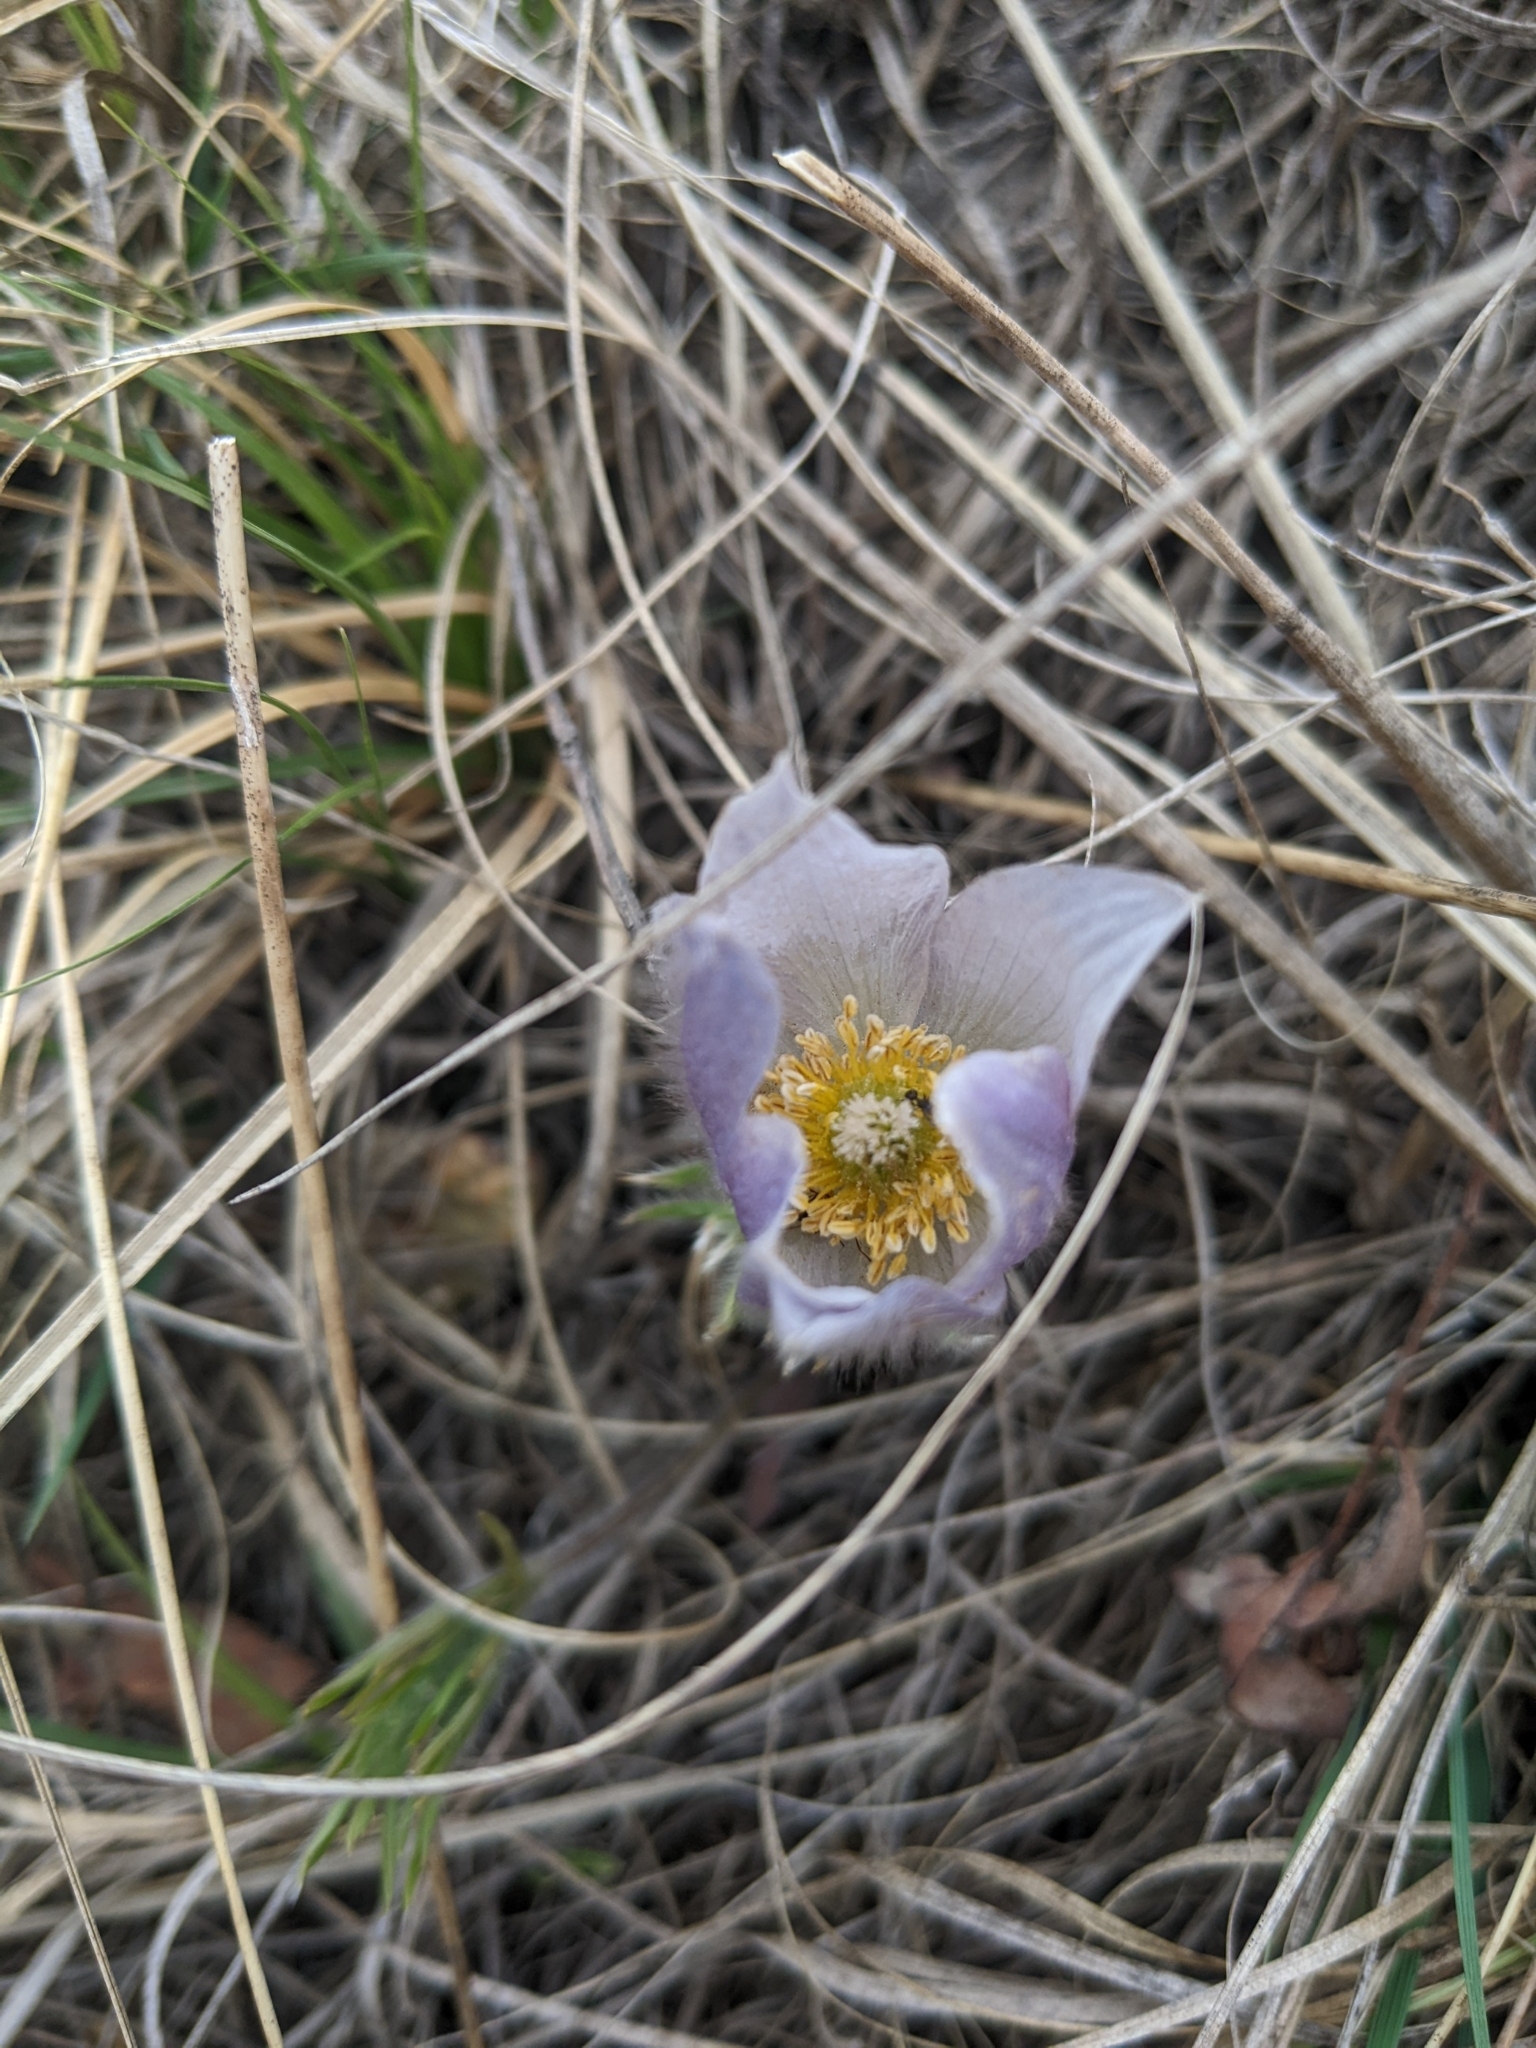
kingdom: Plantae
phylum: Tracheophyta
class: Magnoliopsida
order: Ranunculales
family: Ranunculaceae
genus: Pulsatilla
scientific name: Pulsatilla nuttalliana
